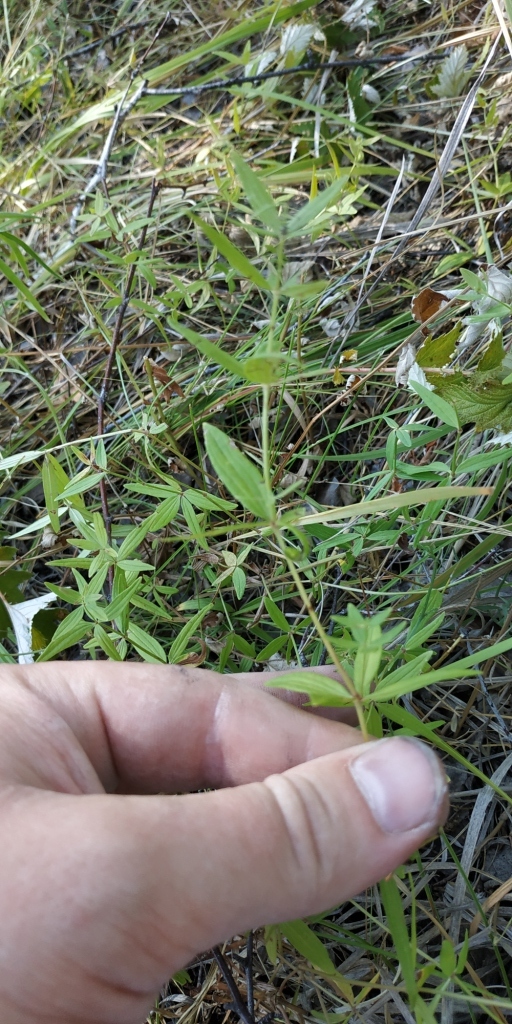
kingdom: Plantae
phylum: Tracheophyta
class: Magnoliopsida
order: Gentianales
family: Rubiaceae
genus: Galium
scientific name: Galium boreale
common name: Northern bedstraw
